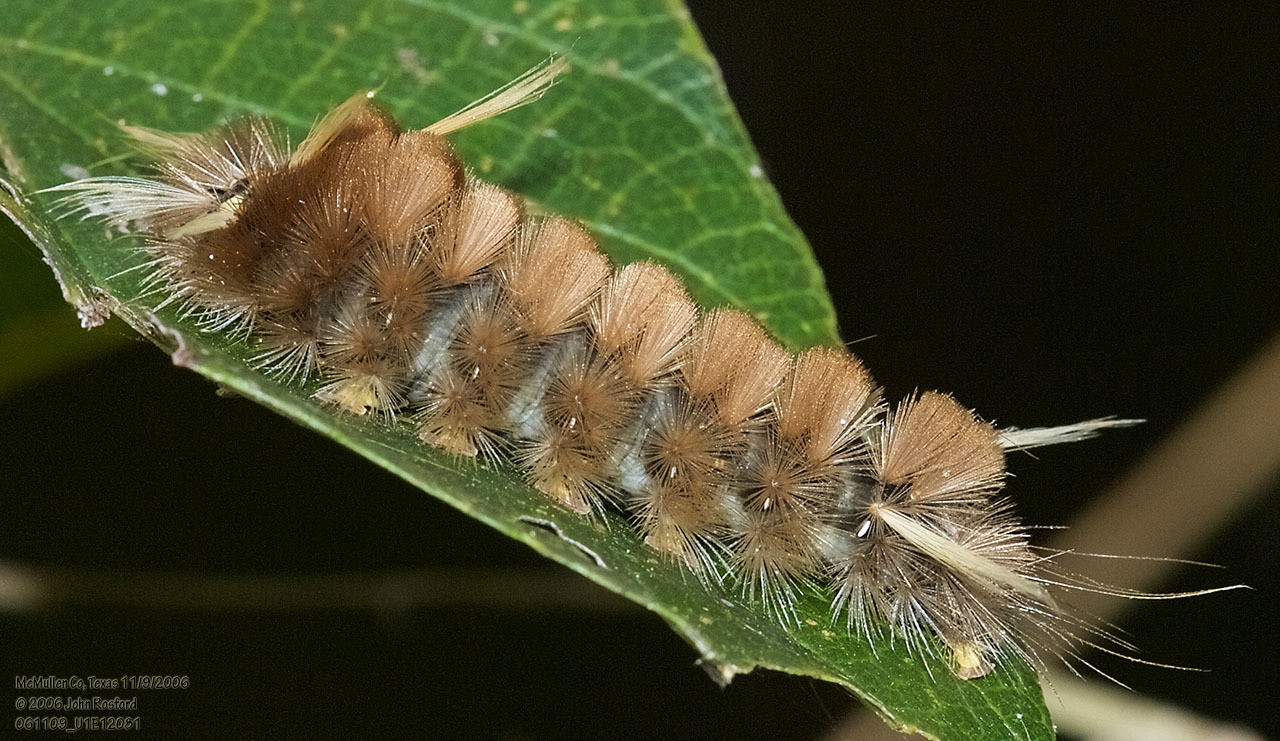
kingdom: Animalia
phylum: Arthropoda
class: Insecta
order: Lepidoptera
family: Erebidae
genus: Halysidota
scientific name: Halysidota schausi
